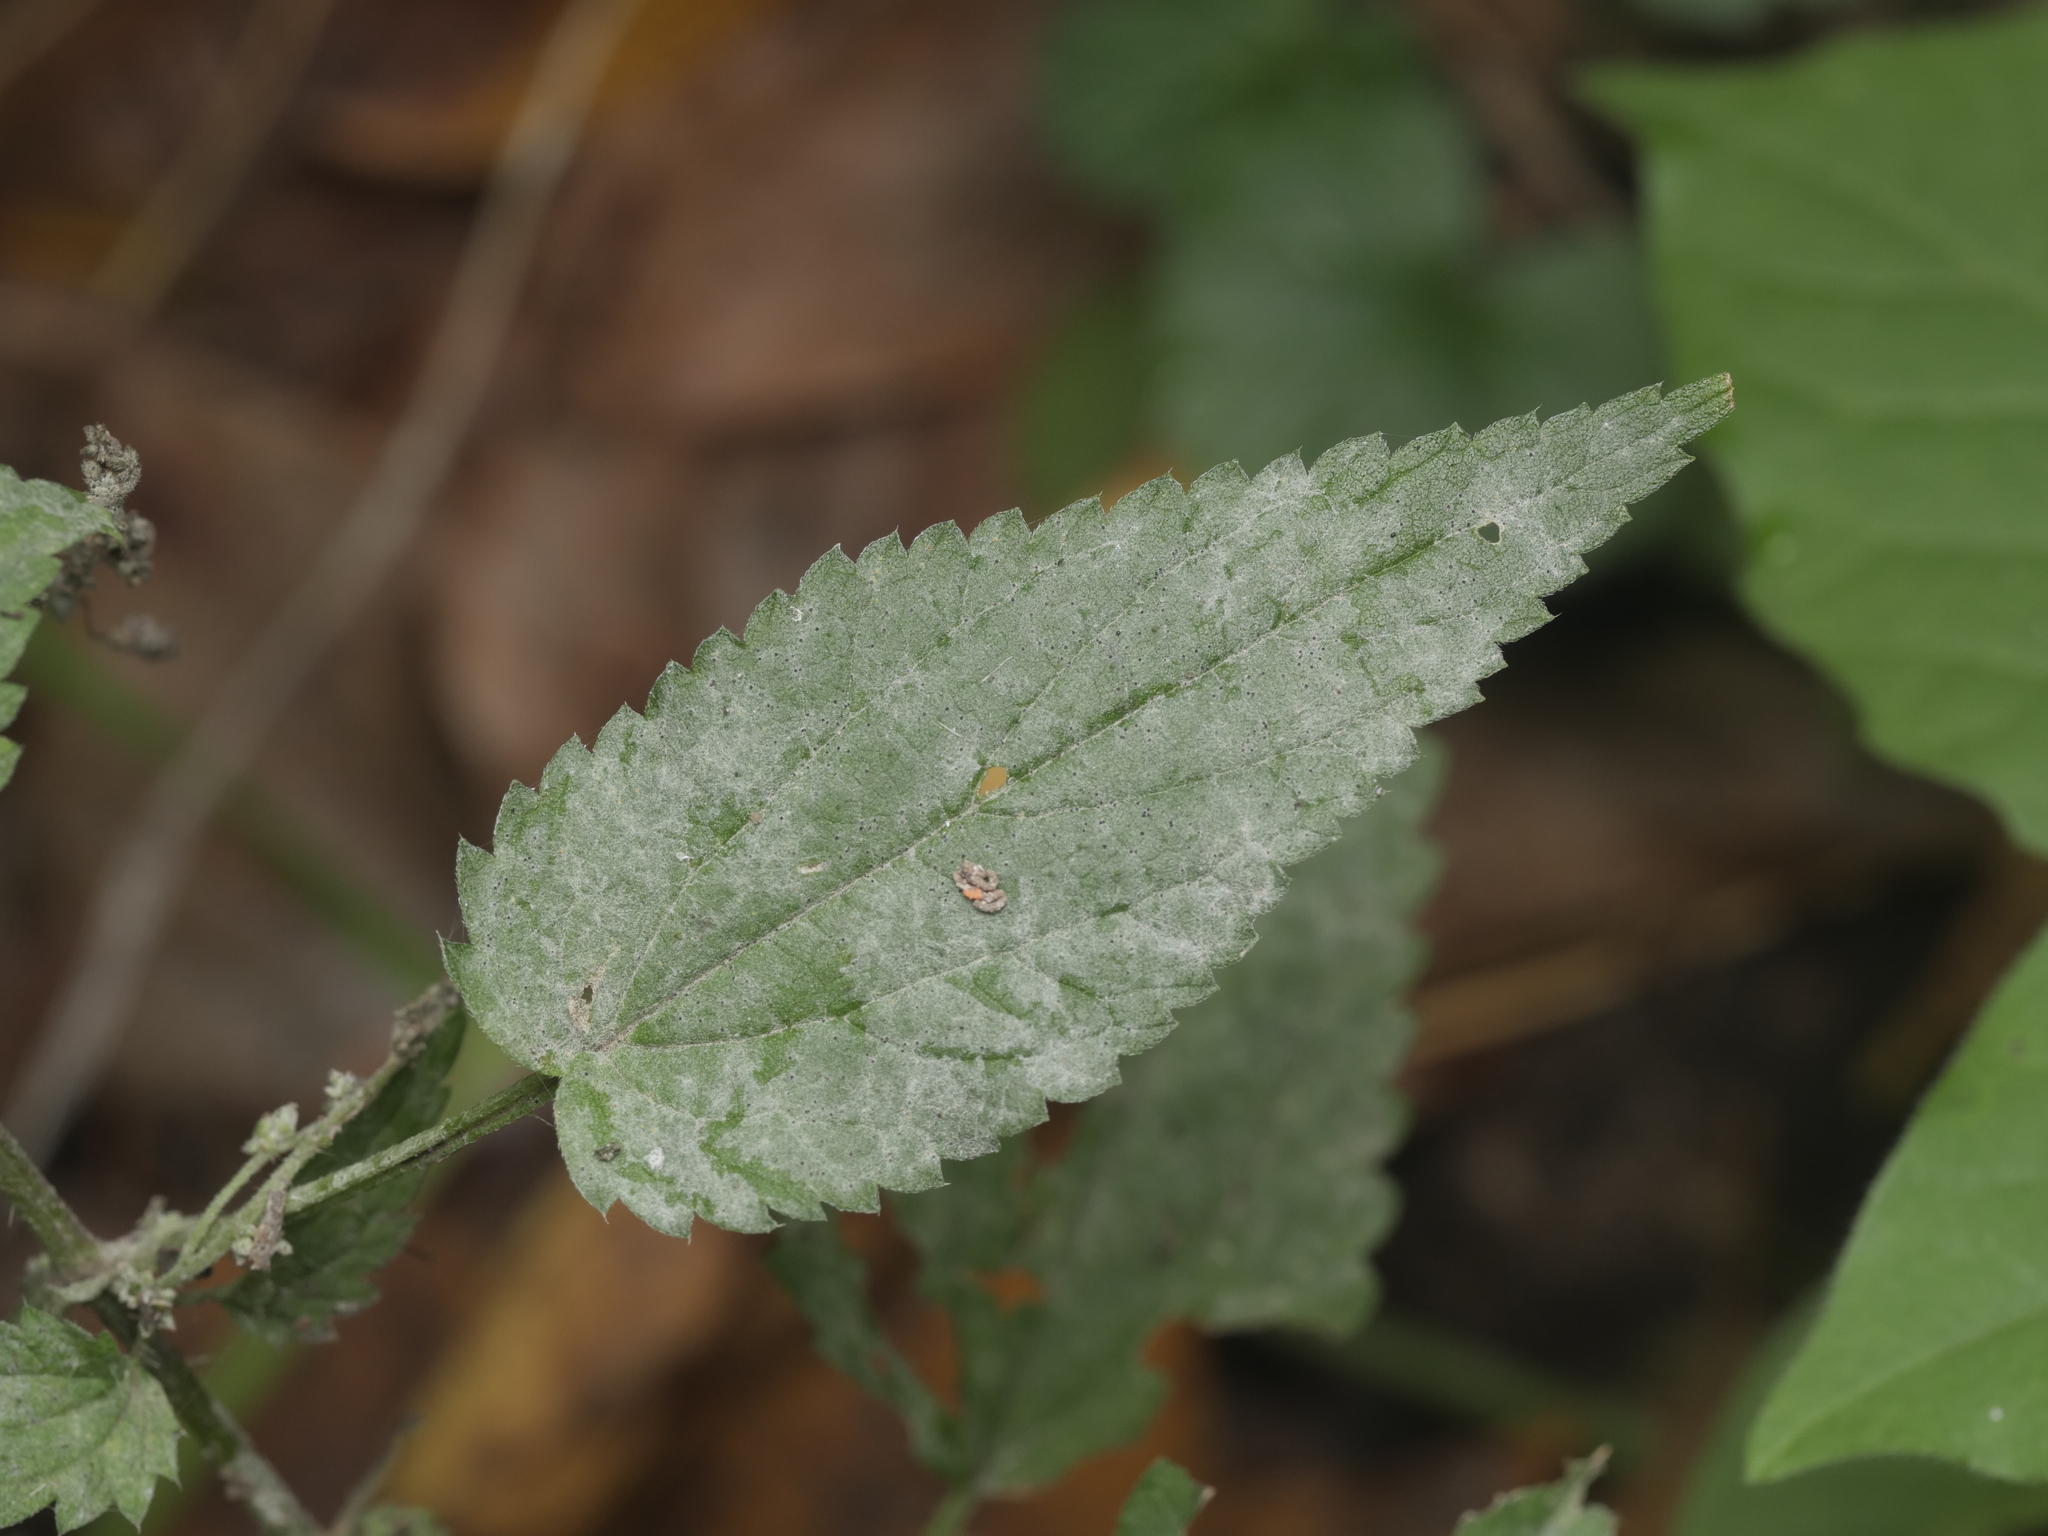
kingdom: Fungi
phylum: Ascomycota
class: Leotiomycetes
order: Helotiales
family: Erysiphaceae
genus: Erysiphe
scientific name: Erysiphe urticae
